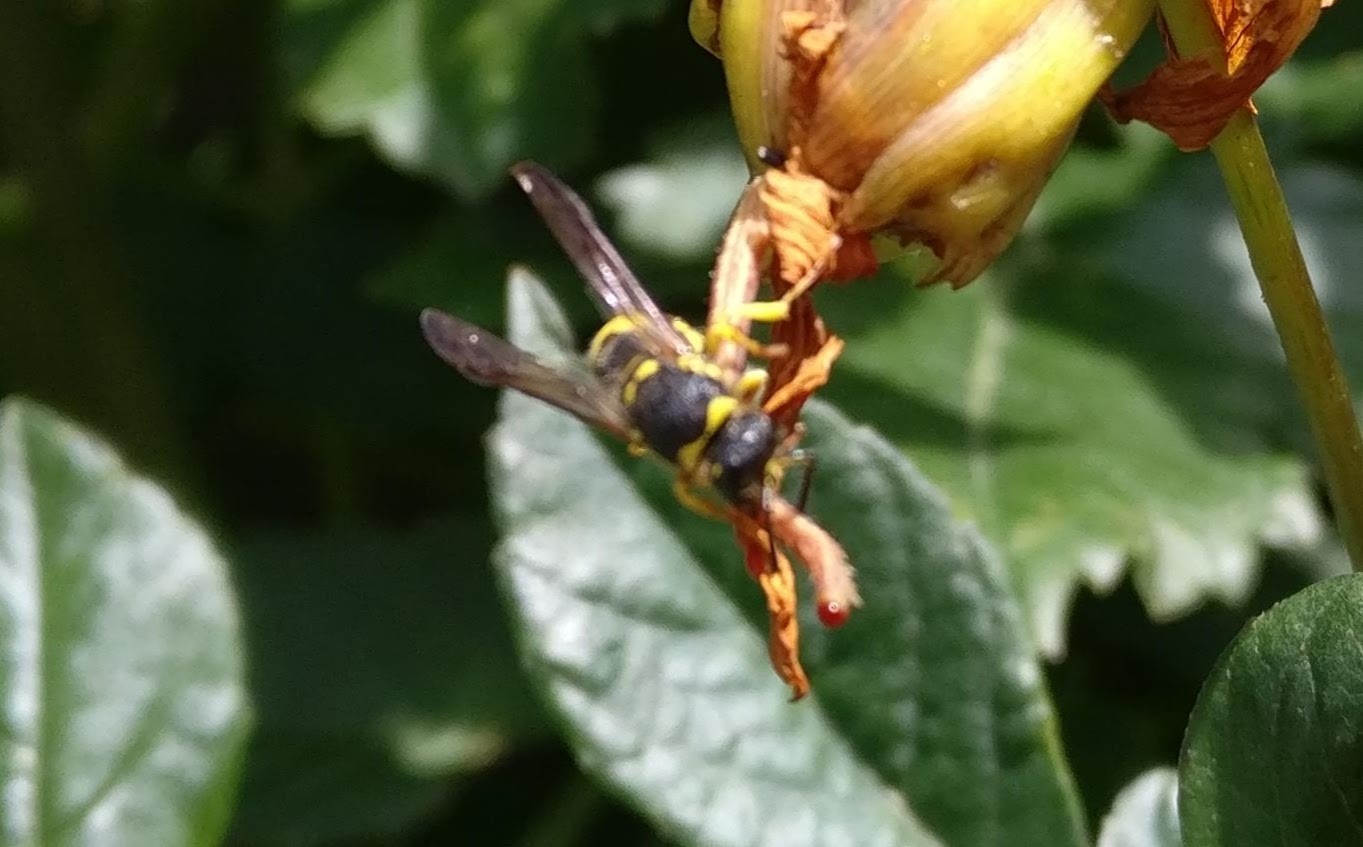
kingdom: Animalia
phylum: Arthropoda
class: Insecta
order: Hymenoptera
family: Vespidae
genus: Ancistrocerus
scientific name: Ancistrocerus gazella
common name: European tube wasp
